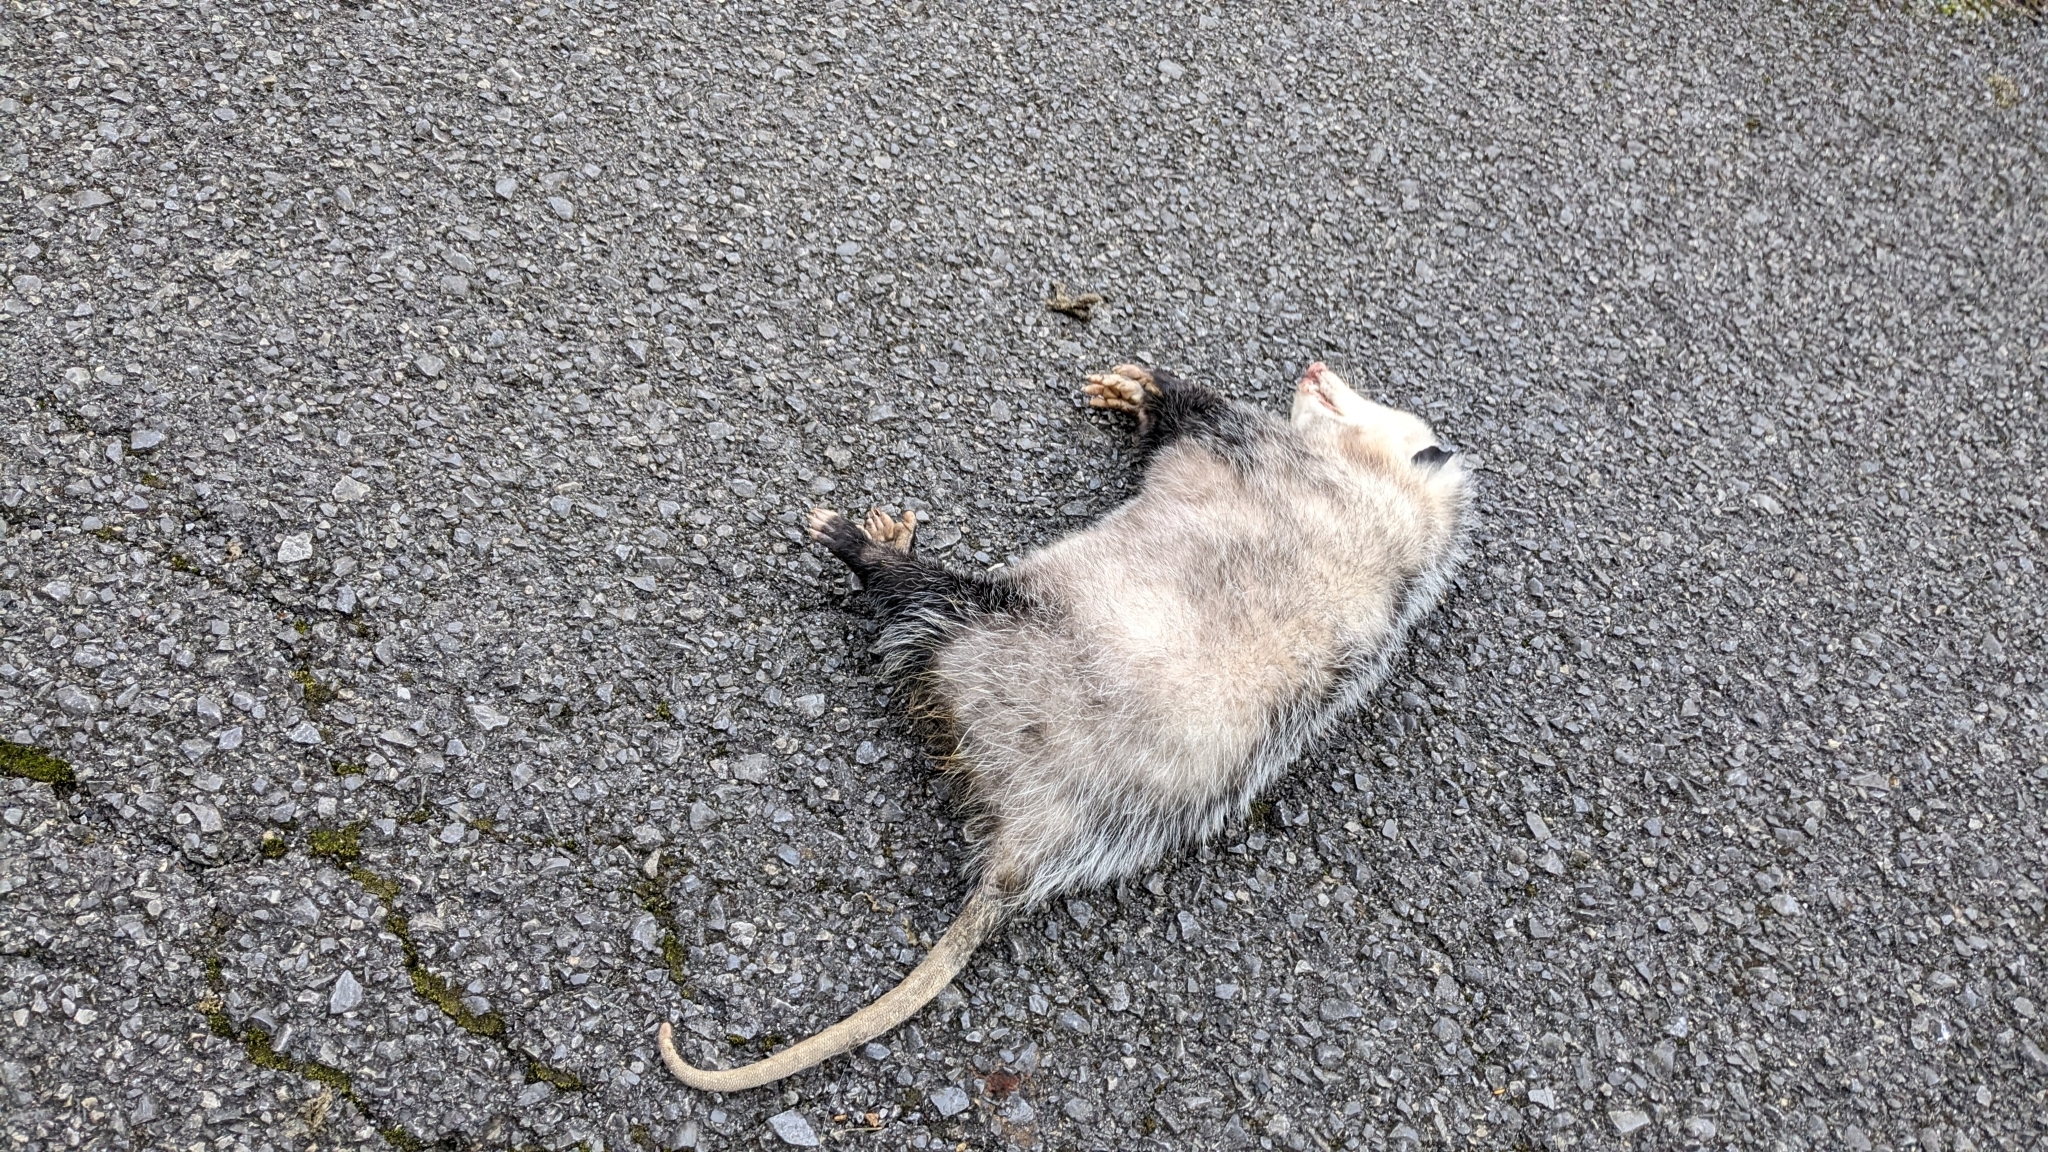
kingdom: Animalia
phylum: Chordata
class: Mammalia
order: Didelphimorphia
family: Didelphidae
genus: Didelphis
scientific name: Didelphis virginiana
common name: Virginia opossum
